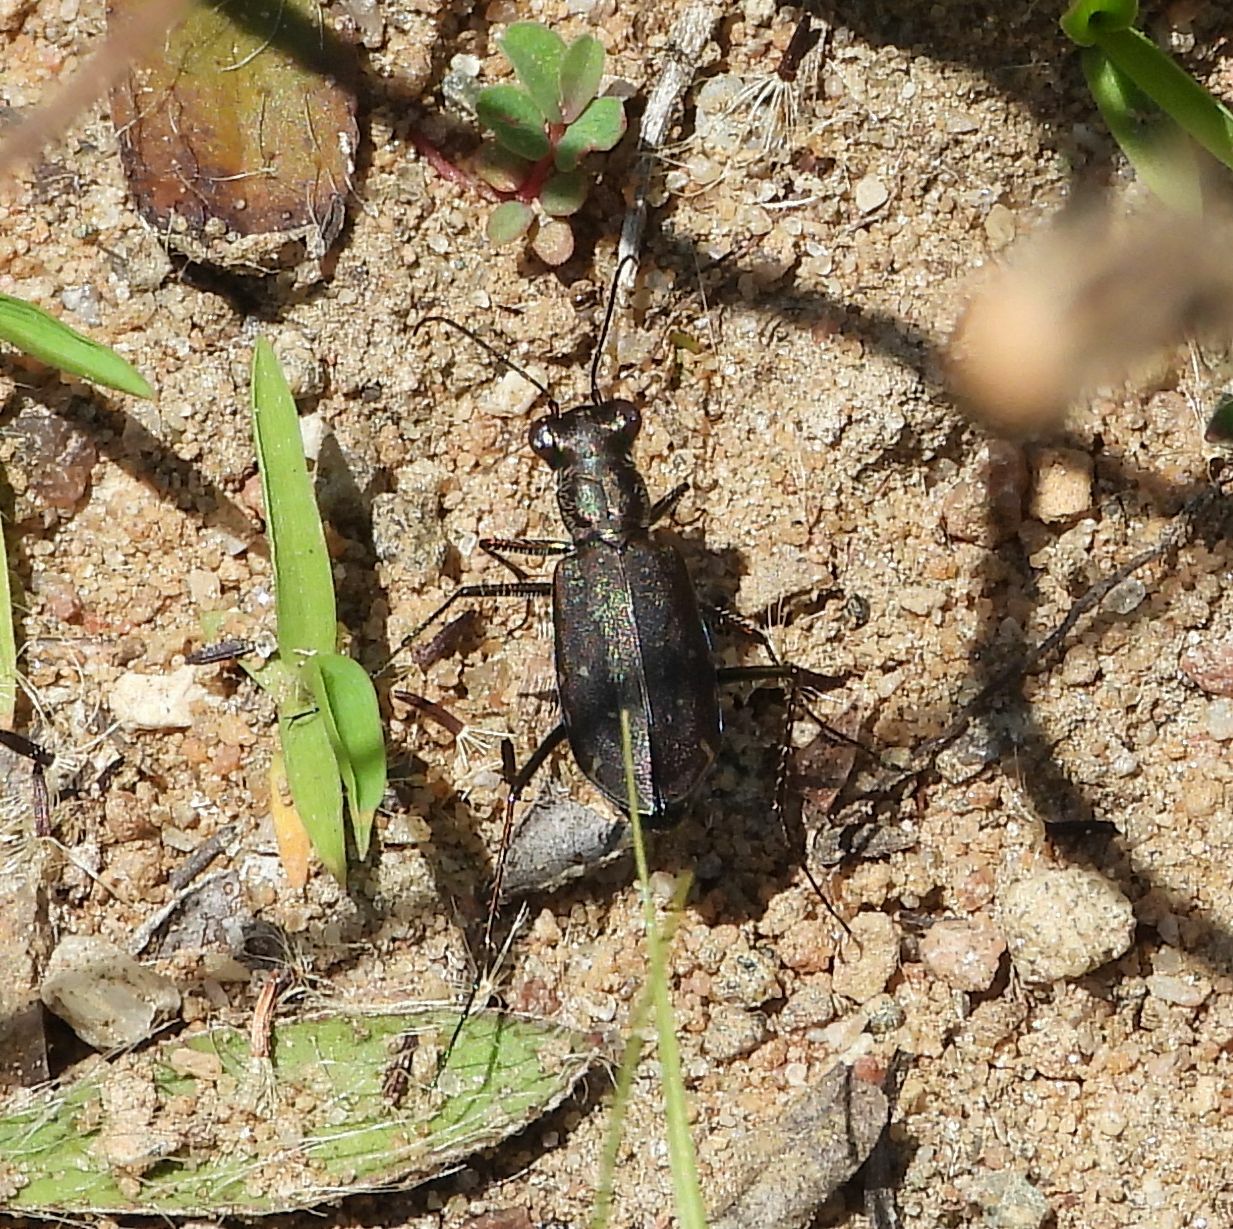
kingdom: Animalia
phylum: Arthropoda
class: Insecta
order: Coleoptera
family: Carabidae
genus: Cicindela
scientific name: Cicindela punctulata
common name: Punctured tiger beetle
